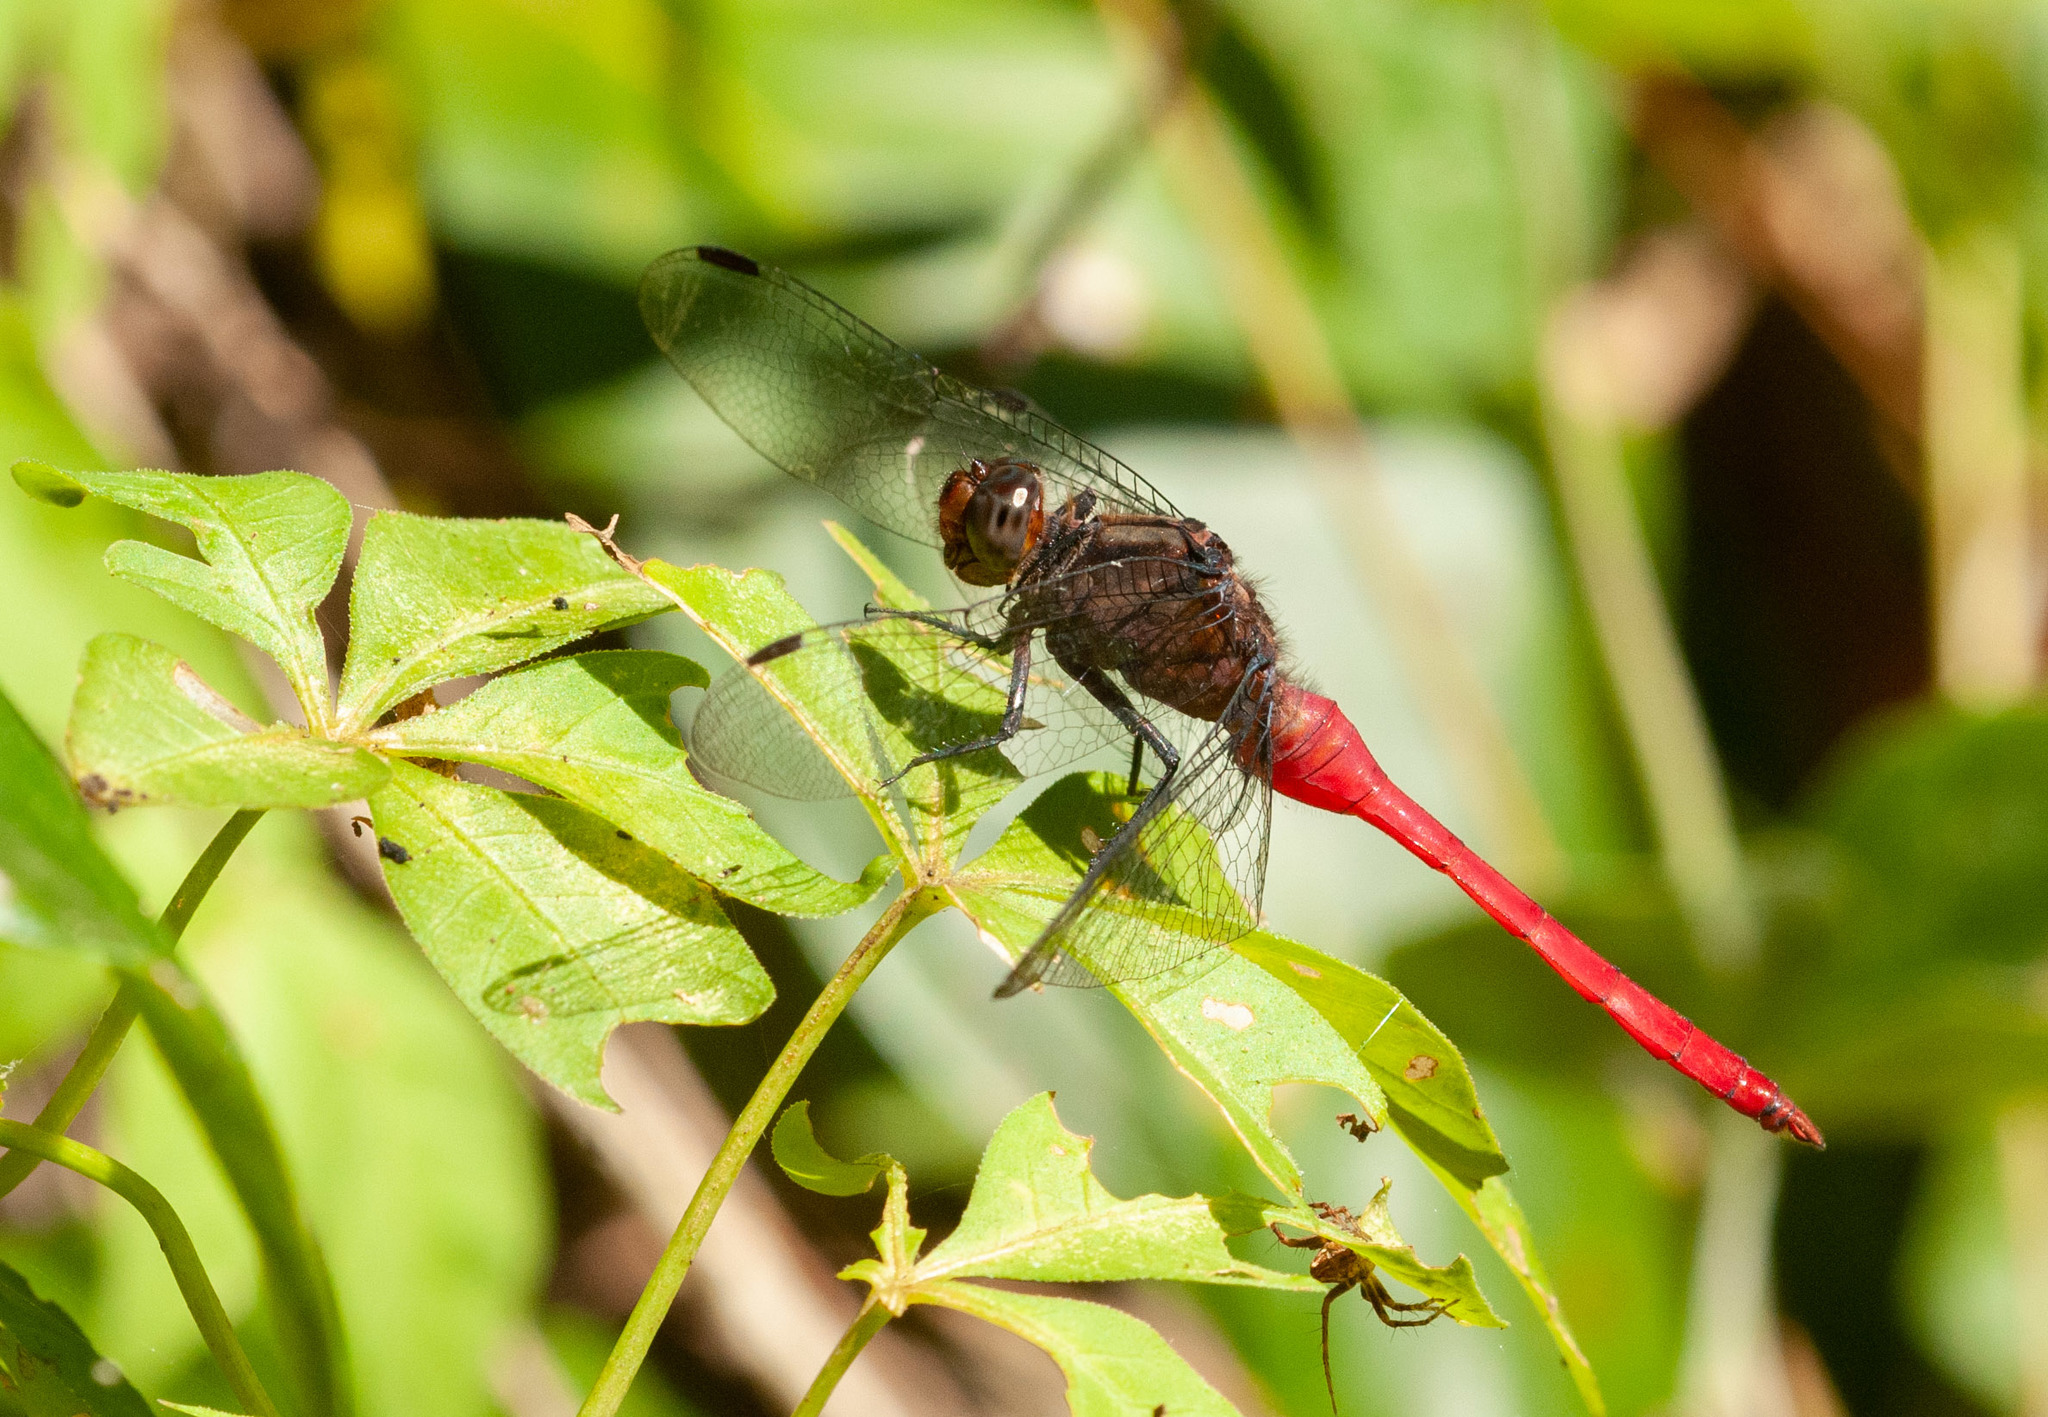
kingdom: Animalia
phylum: Arthropoda
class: Insecta
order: Odonata
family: Libellulidae
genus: Orthetrum
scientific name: Orthetrum villosovittatum
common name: Firery skimmer
